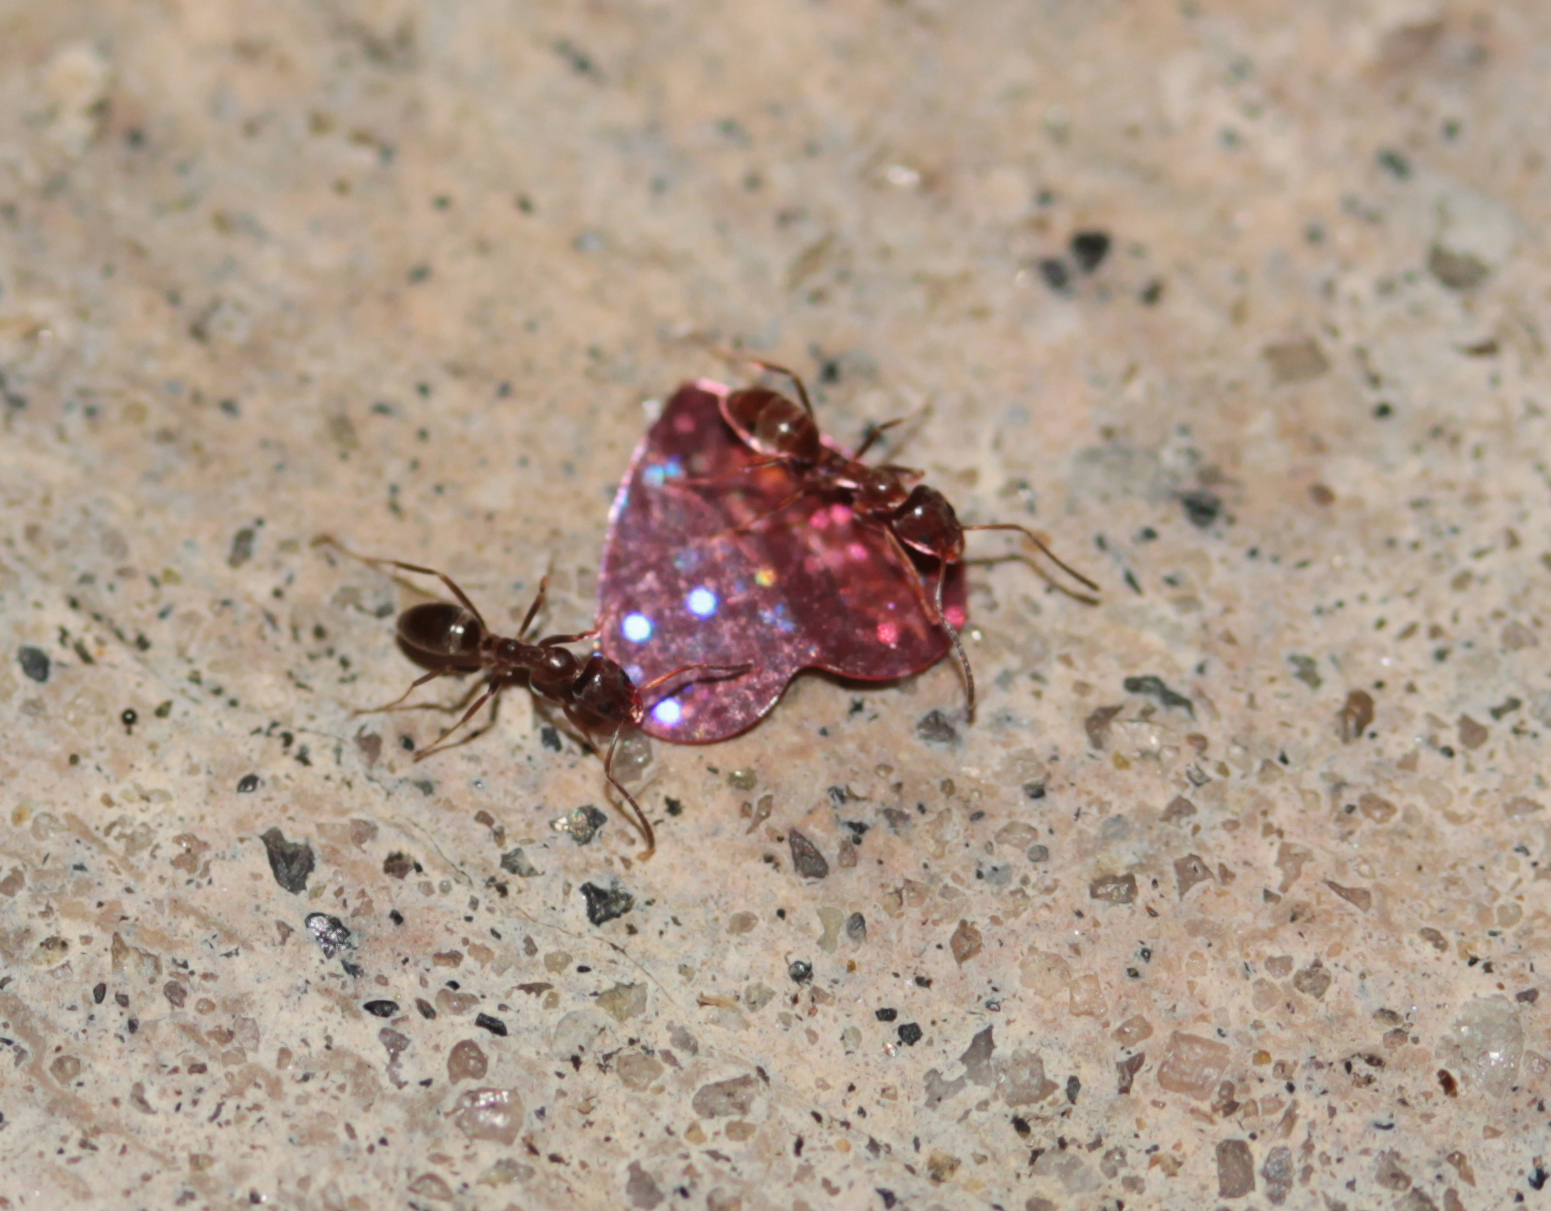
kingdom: Animalia
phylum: Arthropoda
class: Insecta
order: Hymenoptera
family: Formicidae
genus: Linepithema
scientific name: Linepithema humile
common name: Argentine ant
